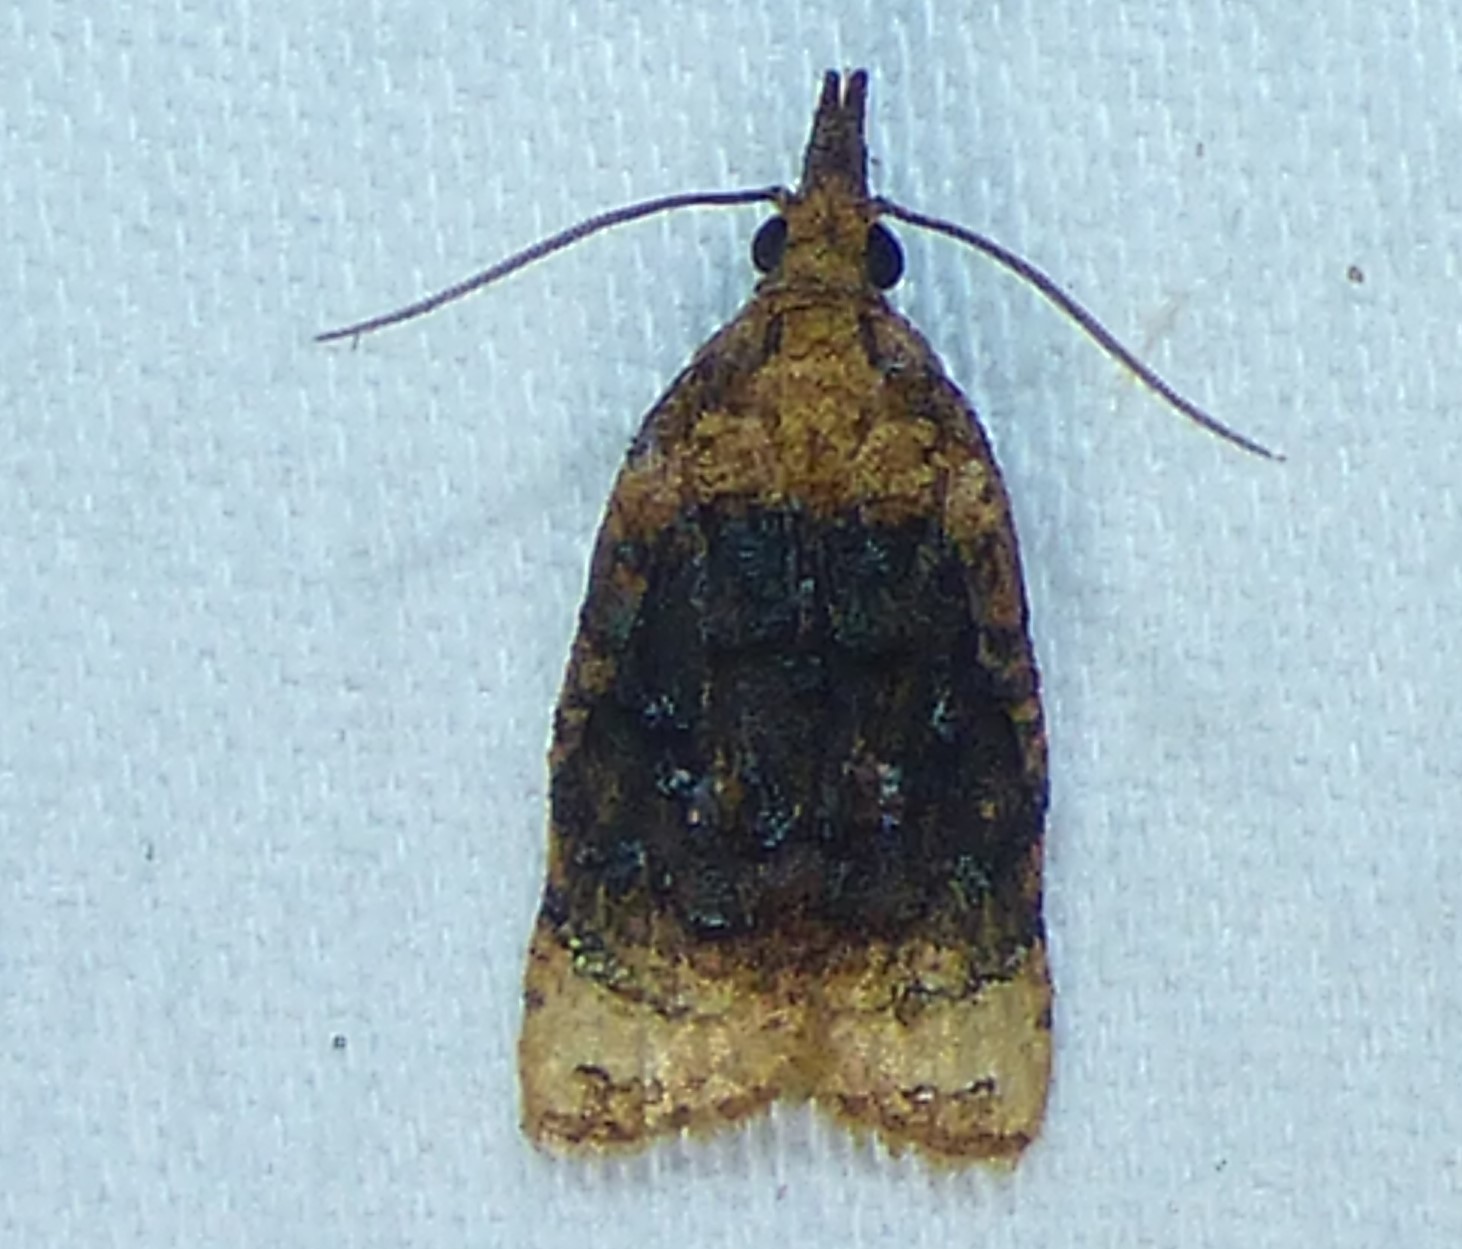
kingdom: Animalia
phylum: Arthropoda
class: Insecta
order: Lepidoptera
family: Tortricidae
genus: Platynota
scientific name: Platynota flavedana
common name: Black-shaded platynota moth
